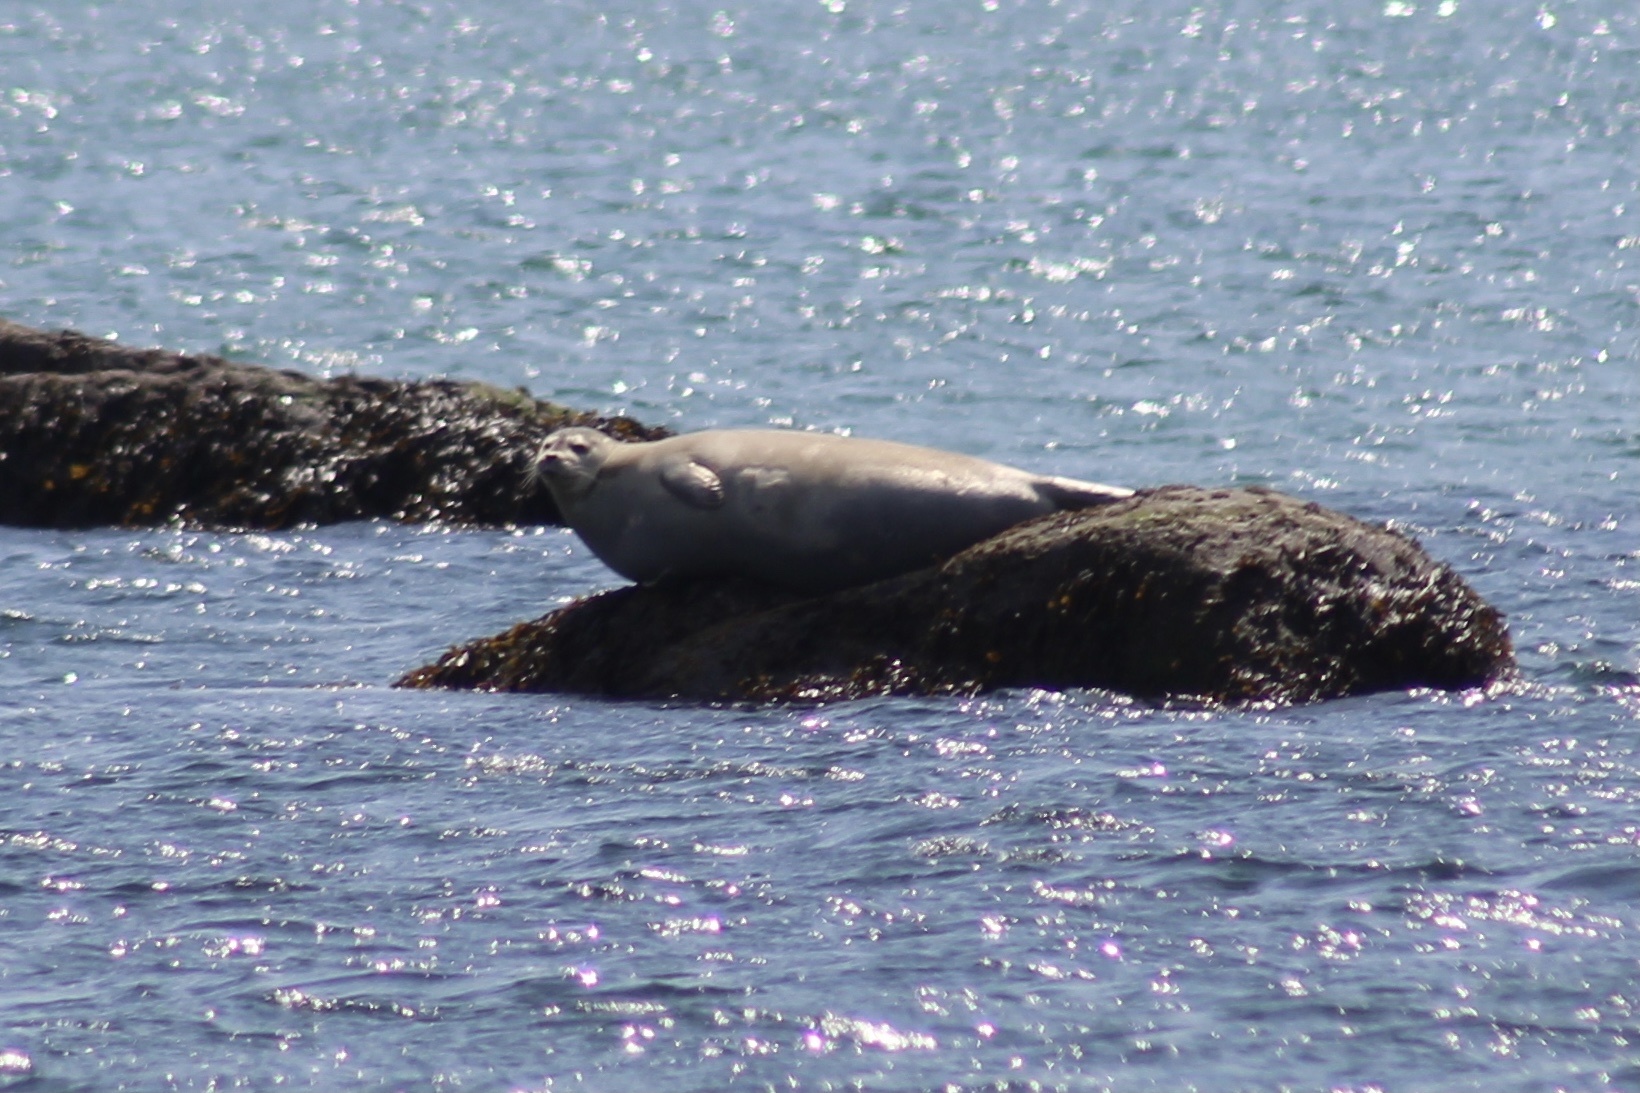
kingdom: Animalia
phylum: Chordata
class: Mammalia
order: Carnivora
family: Phocidae
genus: Phoca
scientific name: Phoca vitulina
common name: Harbor seal
